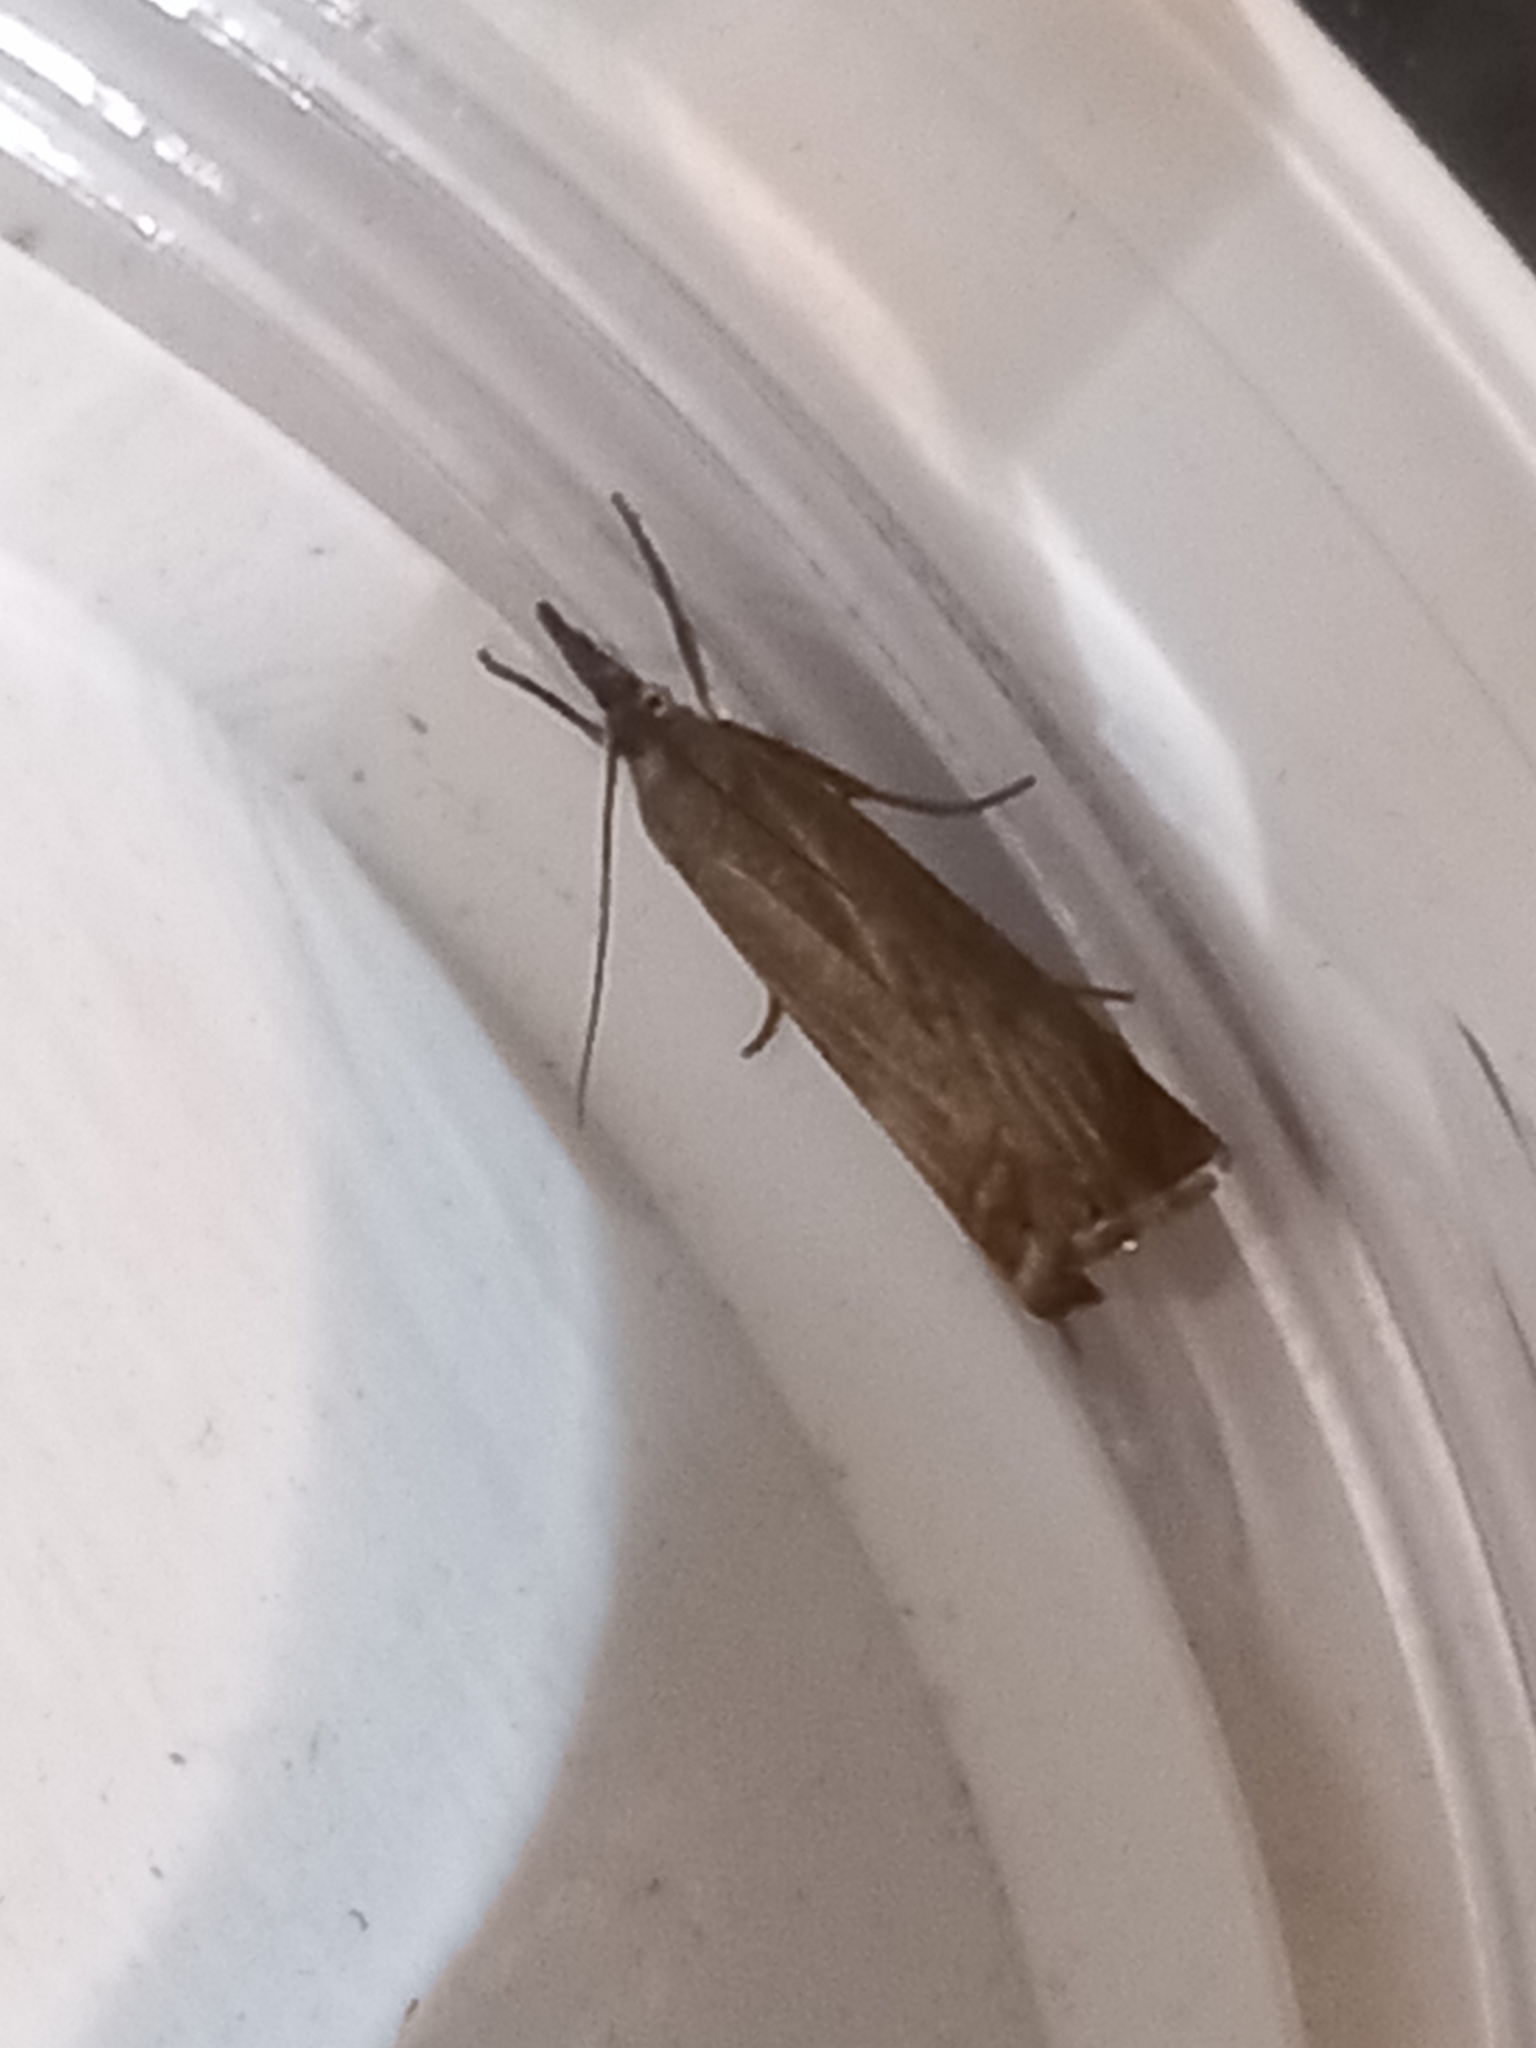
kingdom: Animalia
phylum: Arthropoda
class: Insecta
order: Lepidoptera
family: Crambidae
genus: Chrysoteuchia
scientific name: Chrysoteuchia culmella
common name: Garden grass-veneer
